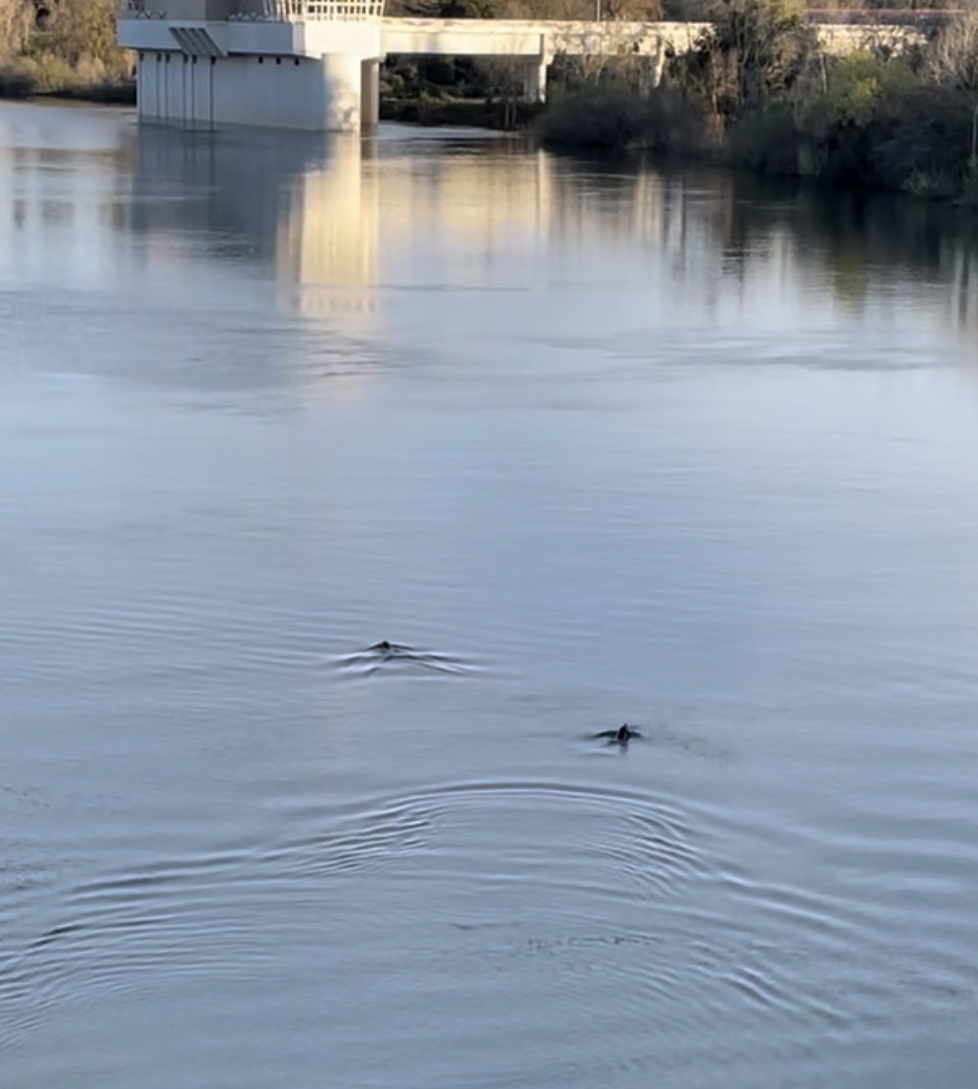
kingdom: Animalia
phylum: Chordata
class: Mammalia
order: Carnivora
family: Otariidae
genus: Zalophus
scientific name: Zalophus californianus
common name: California sea lion
